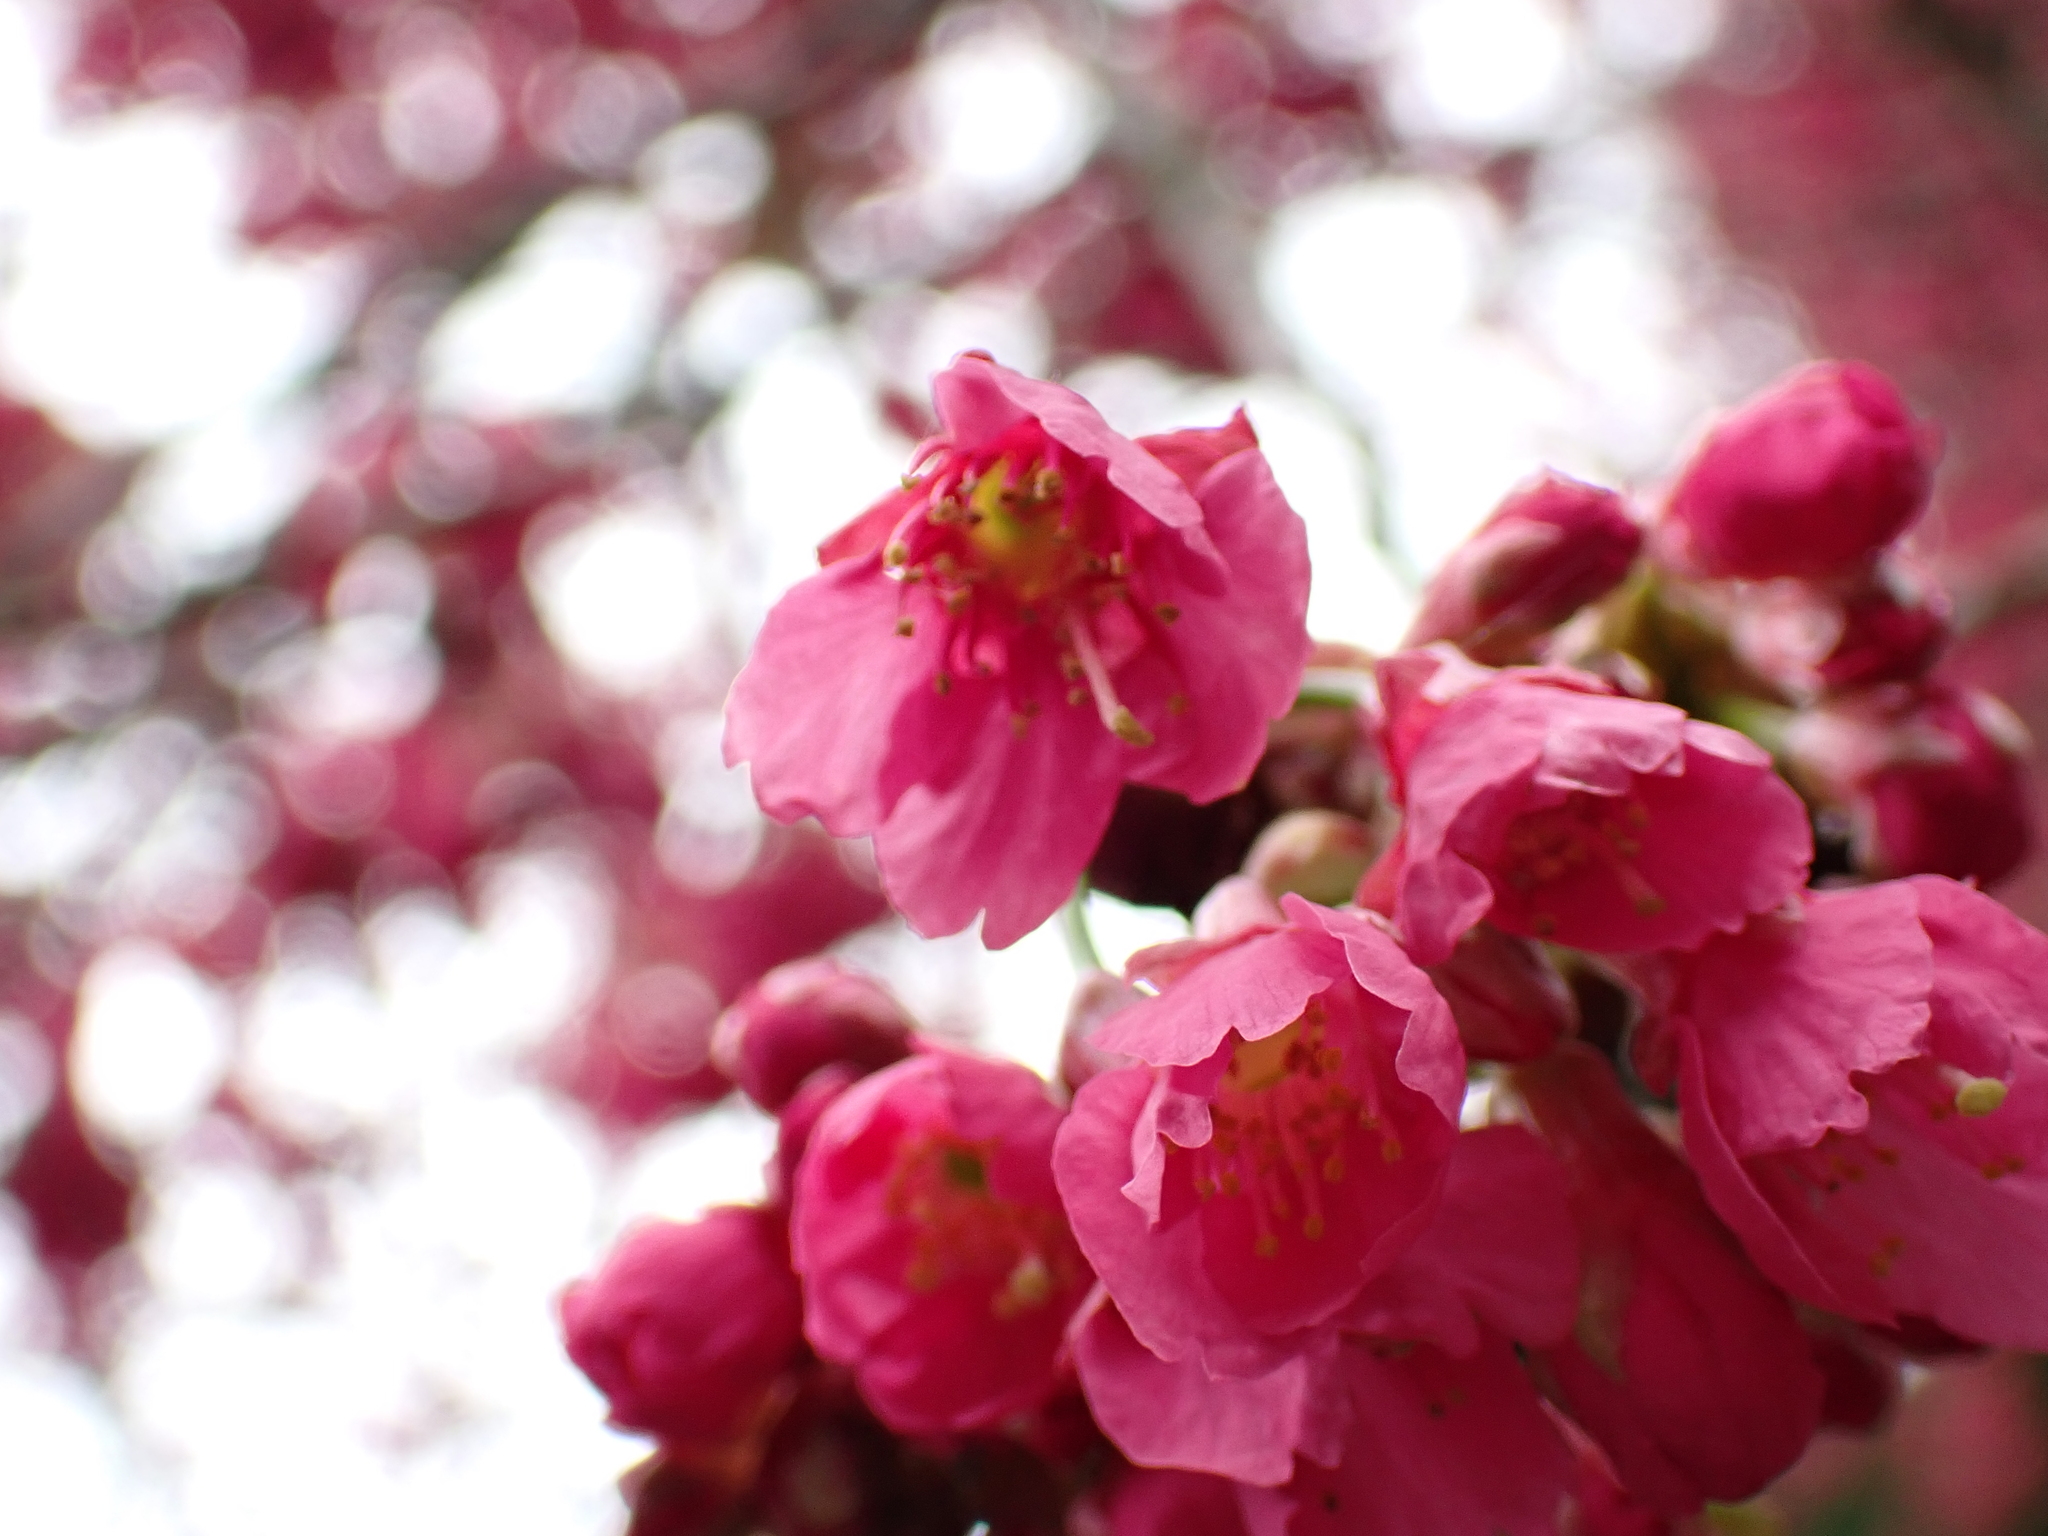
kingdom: Plantae
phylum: Tracheophyta
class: Magnoliopsida
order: Rosales
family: Rosaceae
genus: Prunus
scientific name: Prunus campanulata
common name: Taiwan flowering cherry
